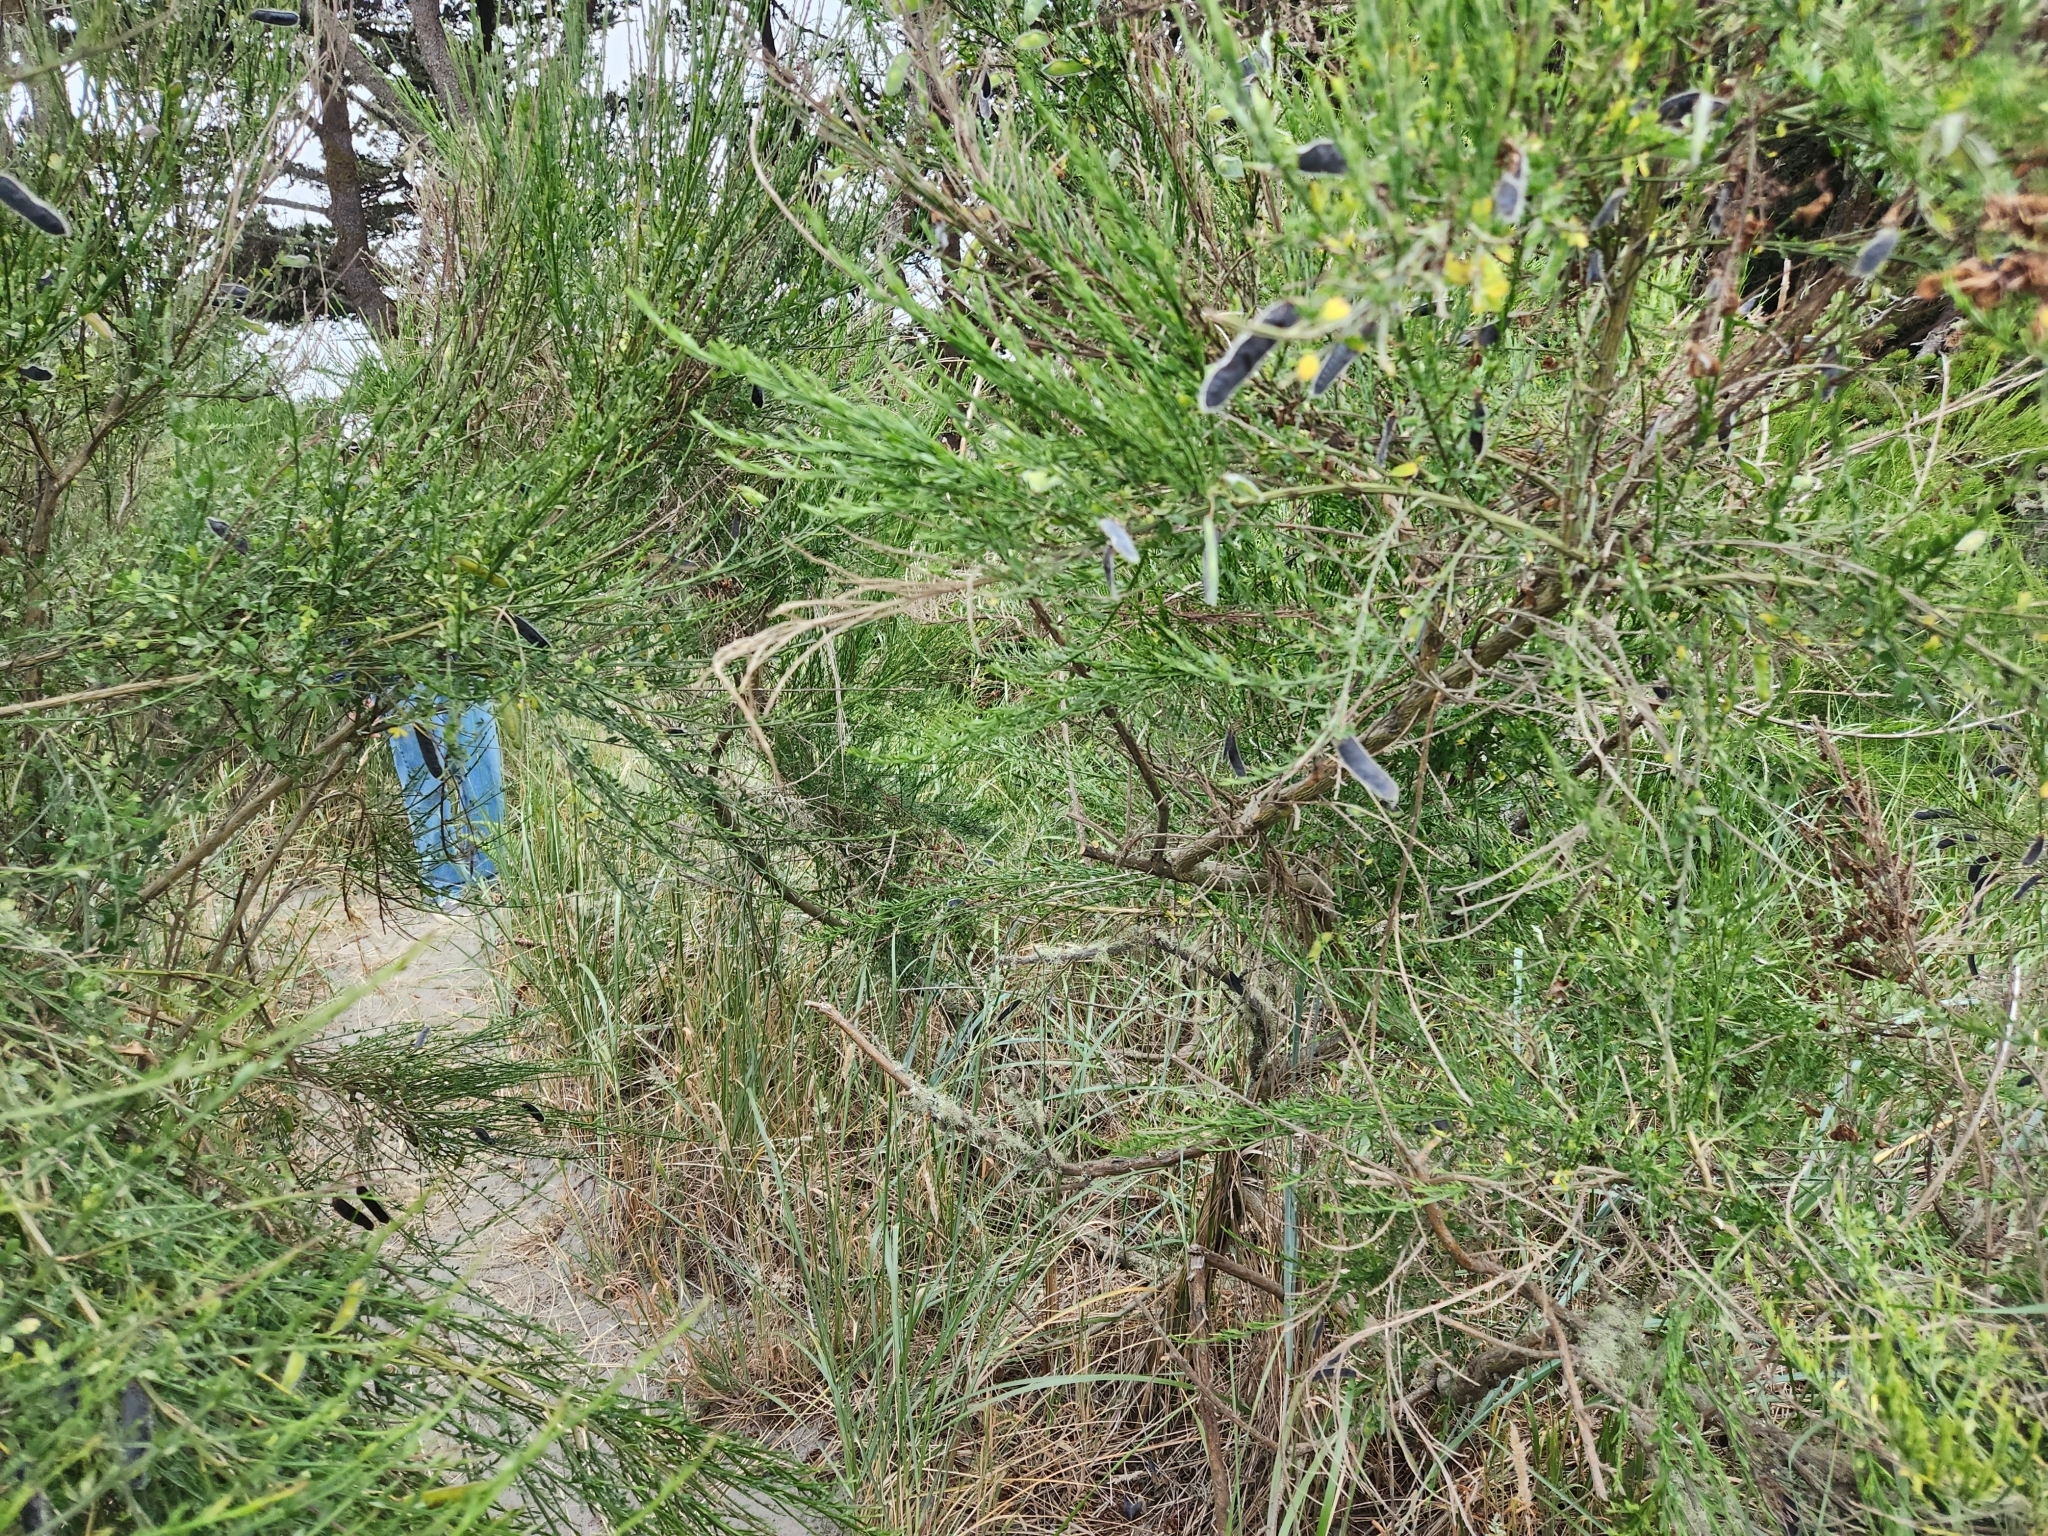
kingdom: Plantae
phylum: Tracheophyta
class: Magnoliopsida
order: Fabales
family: Fabaceae
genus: Cytisus
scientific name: Cytisus scoparius
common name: Scotch broom
